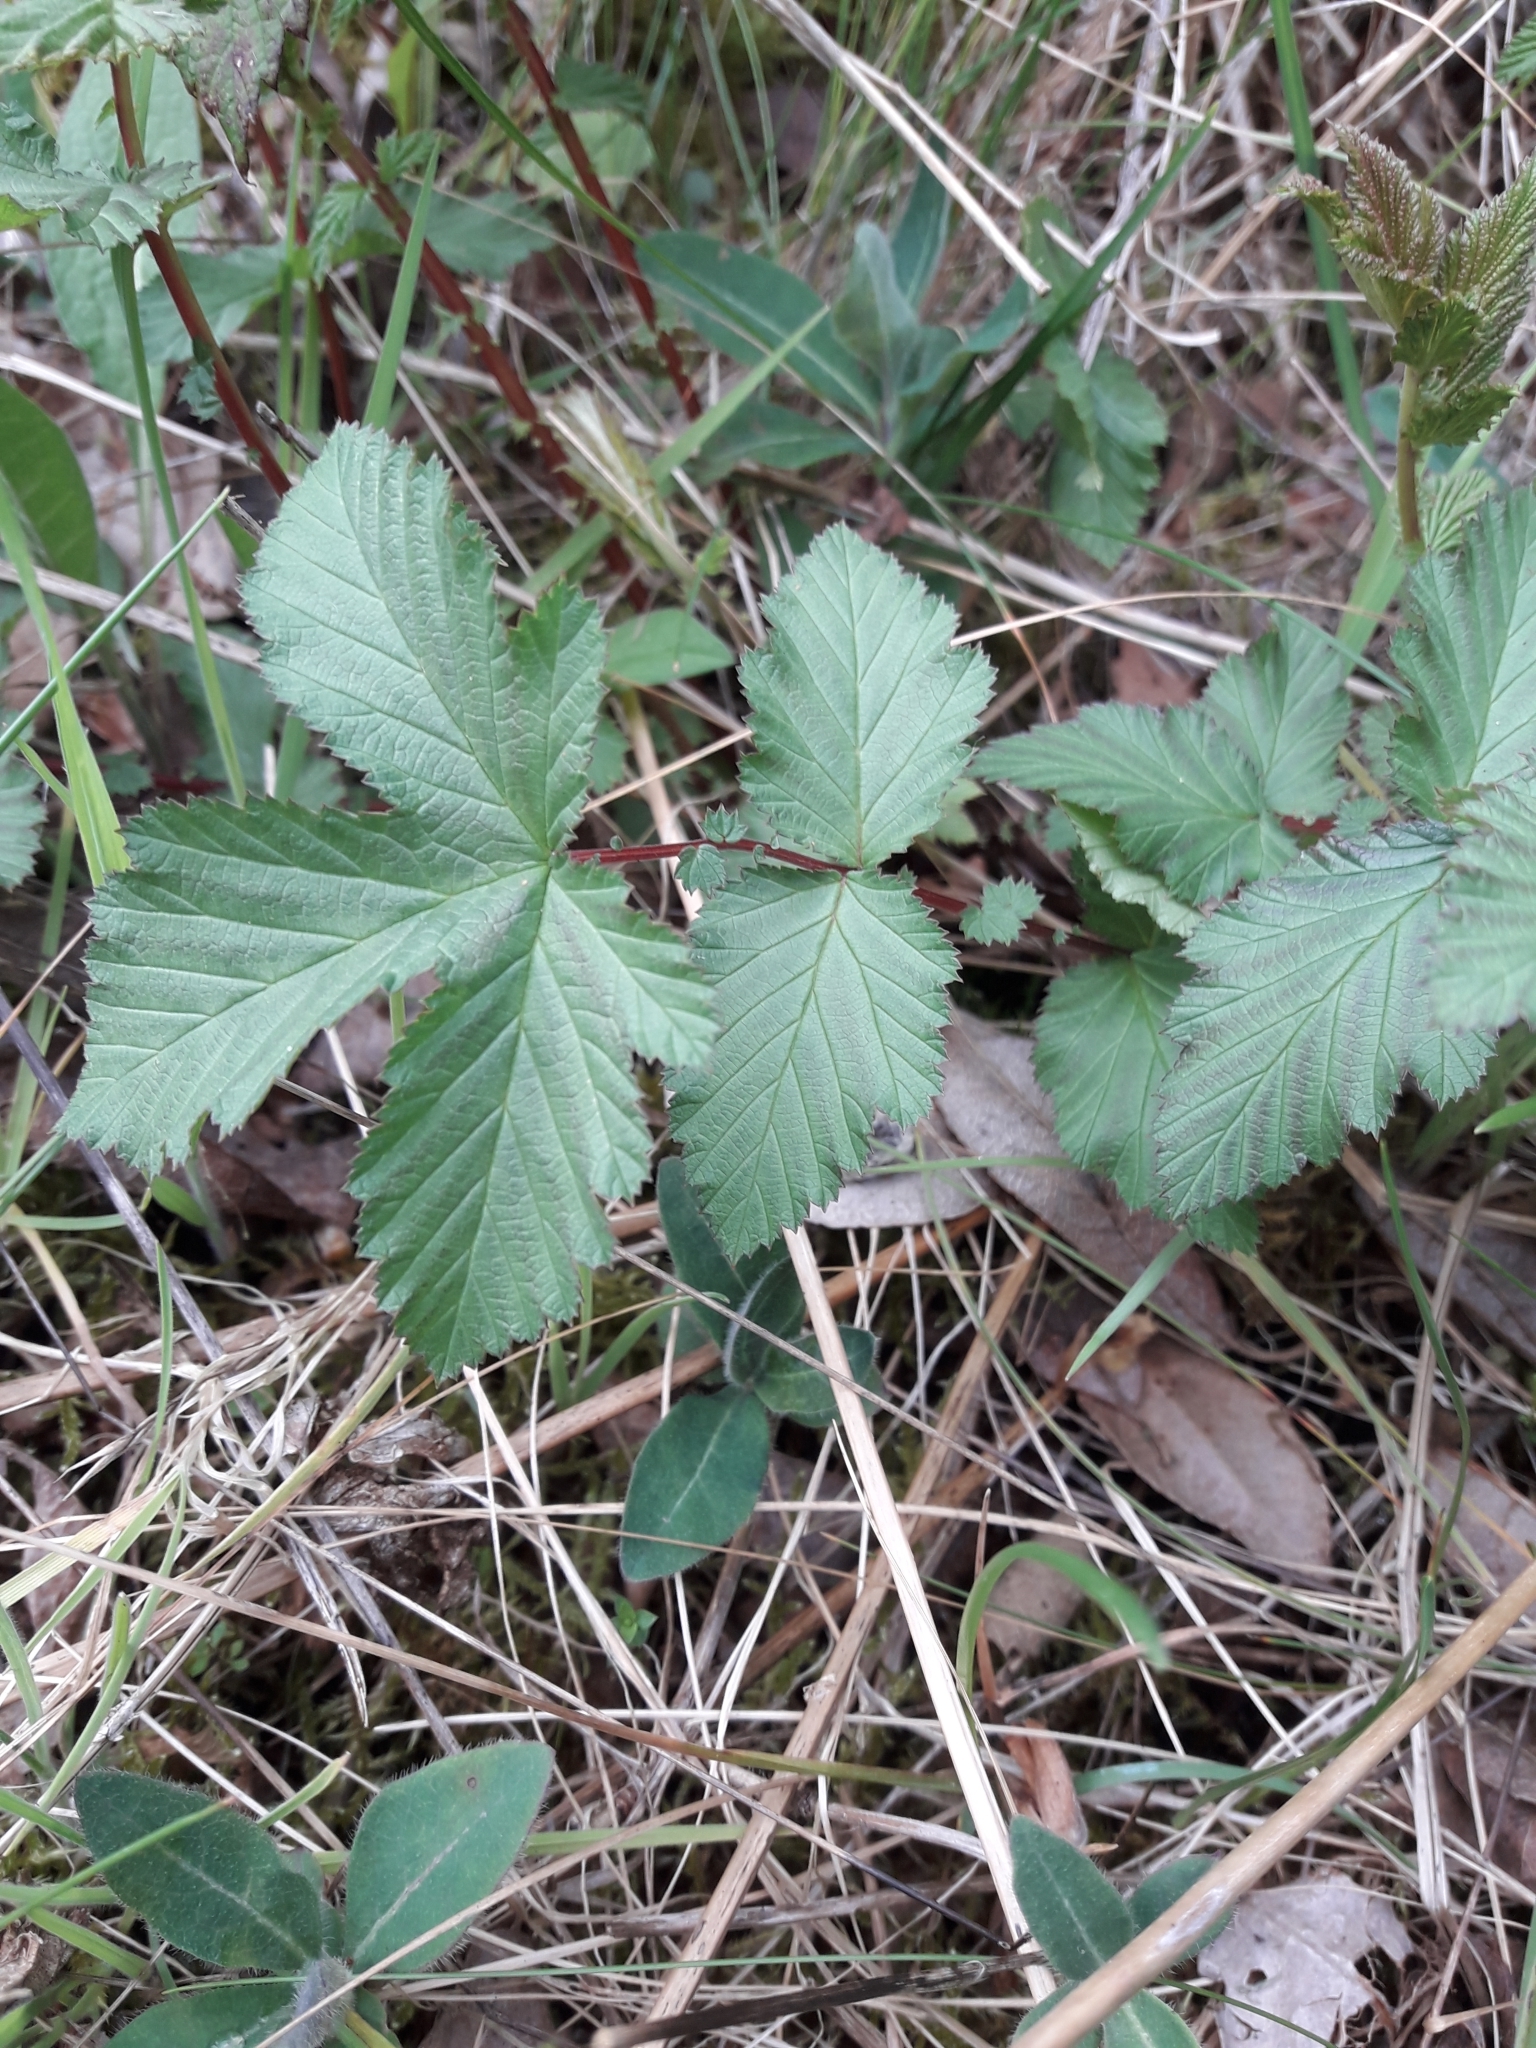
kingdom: Plantae
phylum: Tracheophyta
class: Magnoliopsida
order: Rosales
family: Rosaceae
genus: Filipendula
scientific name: Filipendula ulmaria
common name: Meadowsweet
